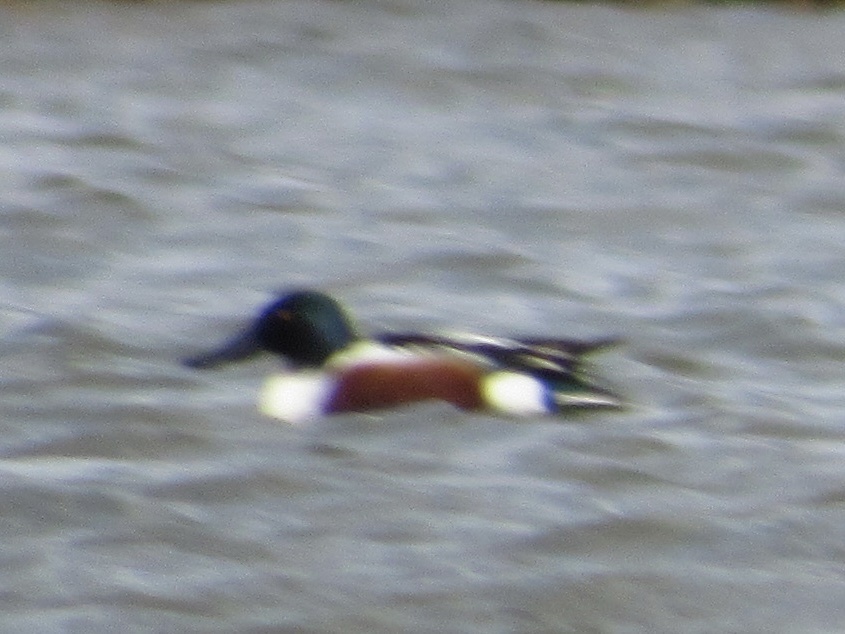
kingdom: Animalia
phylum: Chordata
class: Aves
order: Anseriformes
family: Anatidae
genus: Spatula
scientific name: Spatula clypeata
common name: Northern shoveler
